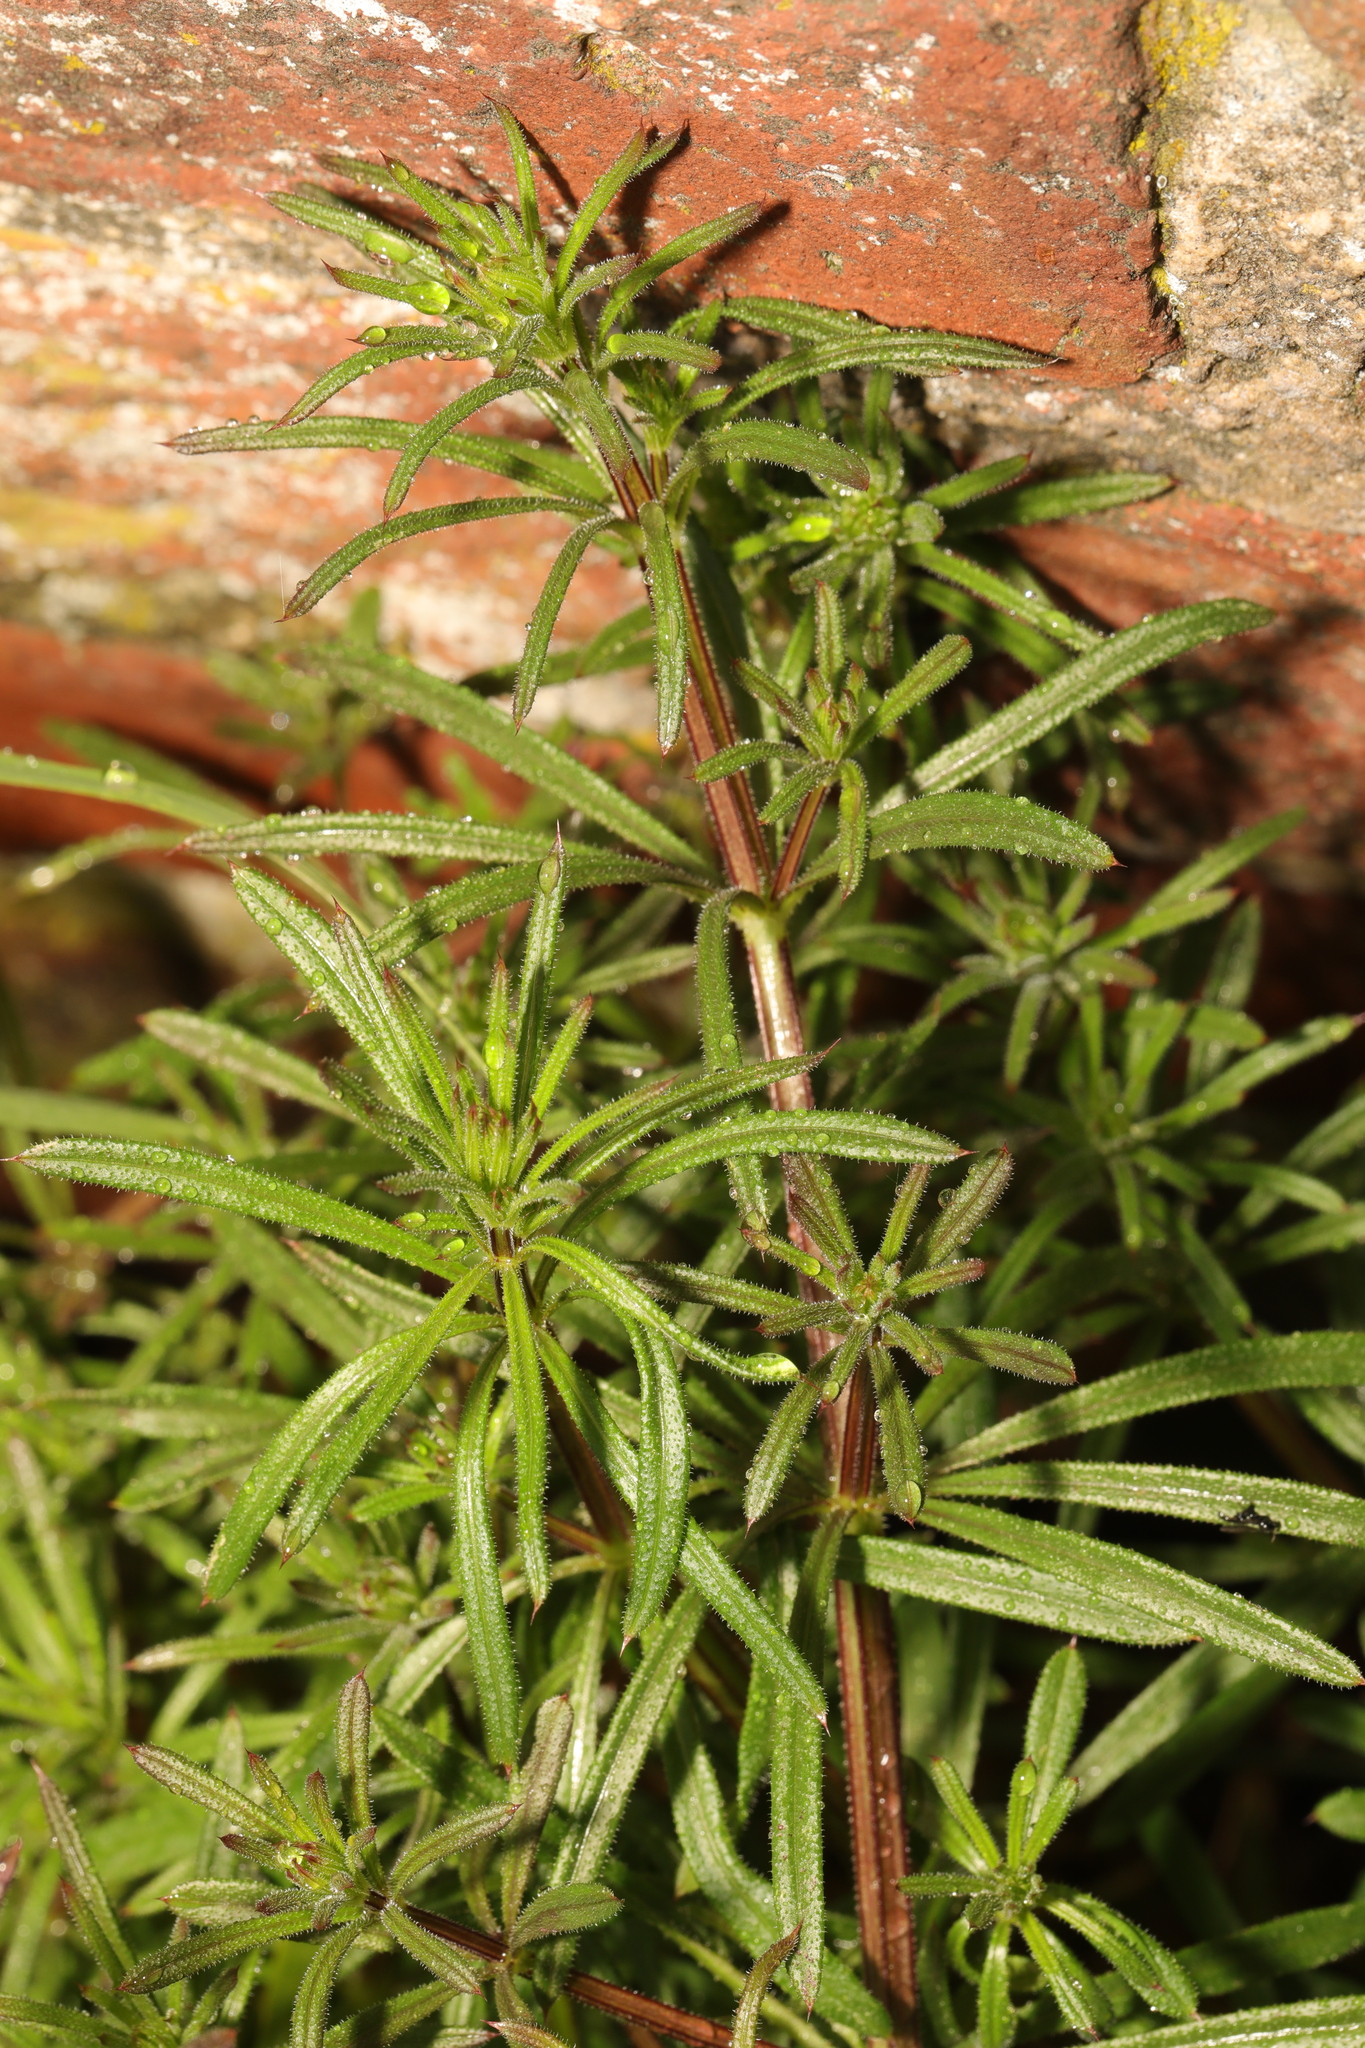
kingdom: Plantae
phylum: Tracheophyta
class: Magnoliopsida
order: Gentianales
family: Rubiaceae
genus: Galium
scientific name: Galium aparine
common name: Cleavers
